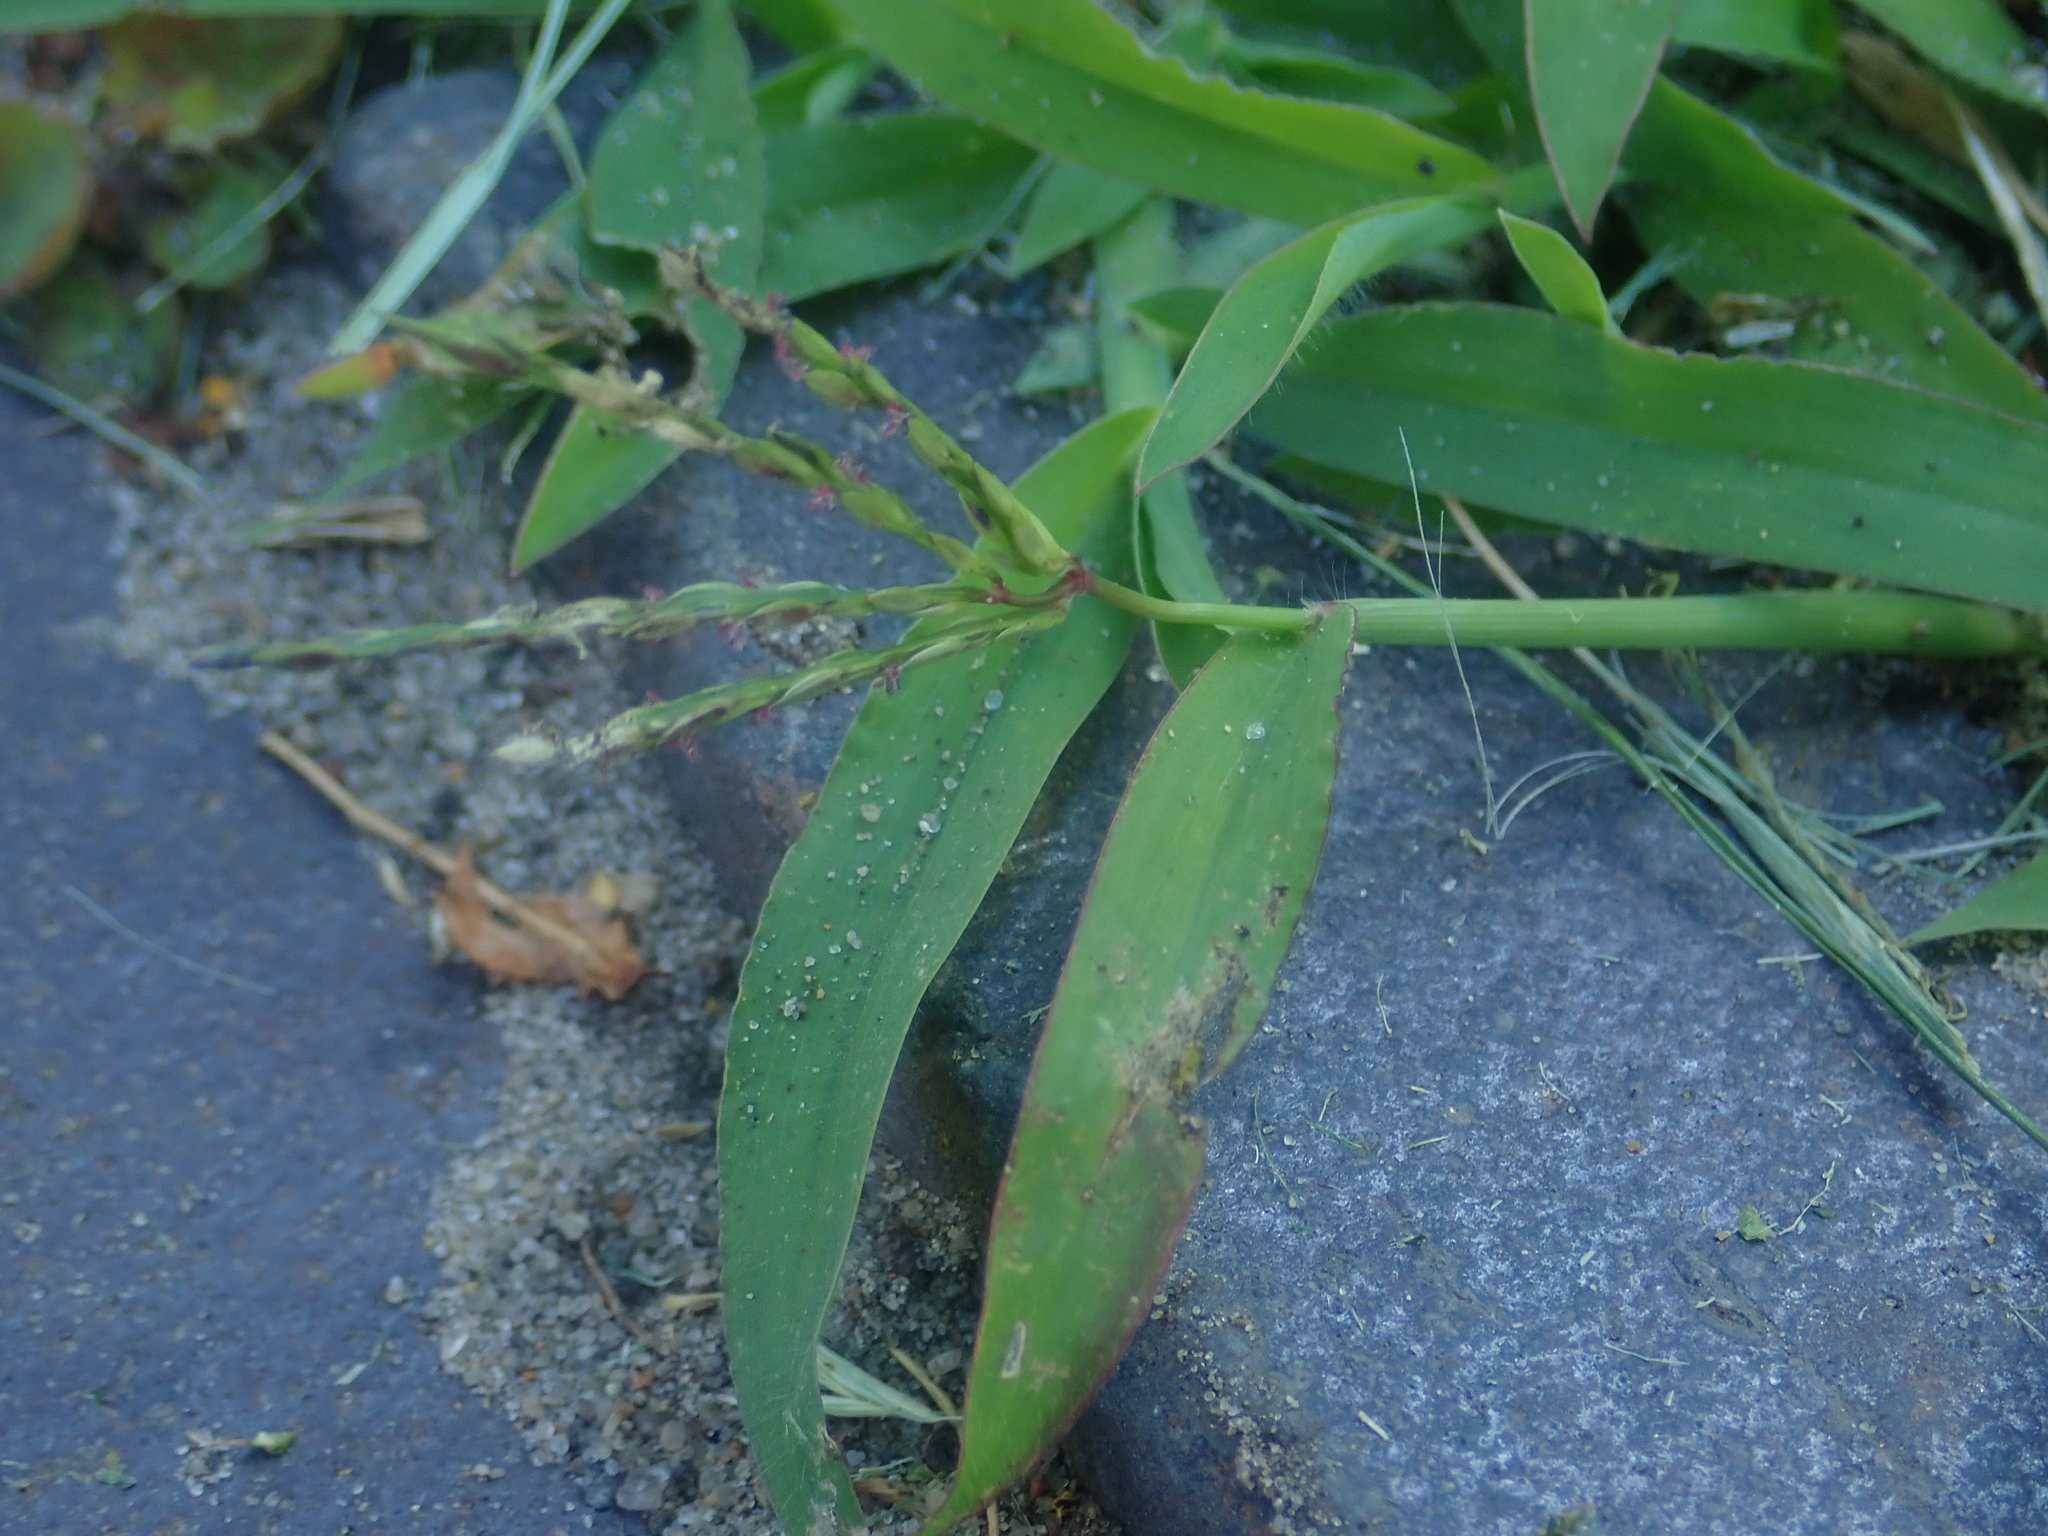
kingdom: Plantae
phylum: Tracheophyta
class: Liliopsida
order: Poales
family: Poaceae
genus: Digitaria
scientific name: Digitaria sanguinalis
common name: Hairy crabgrass
